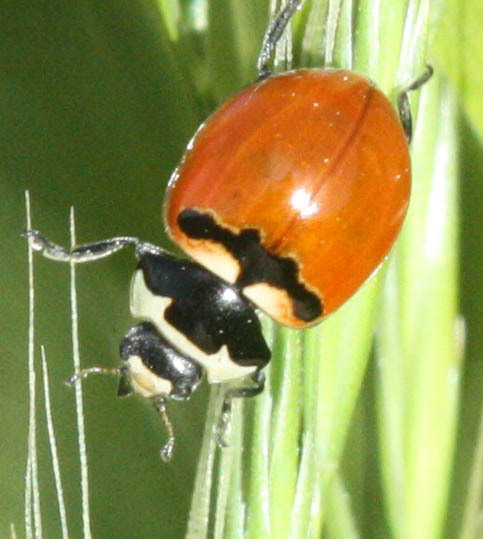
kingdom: Animalia
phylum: Arthropoda
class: Insecta
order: Coleoptera
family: Coccinellidae
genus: Coccinella
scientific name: Coccinella trifasciata
